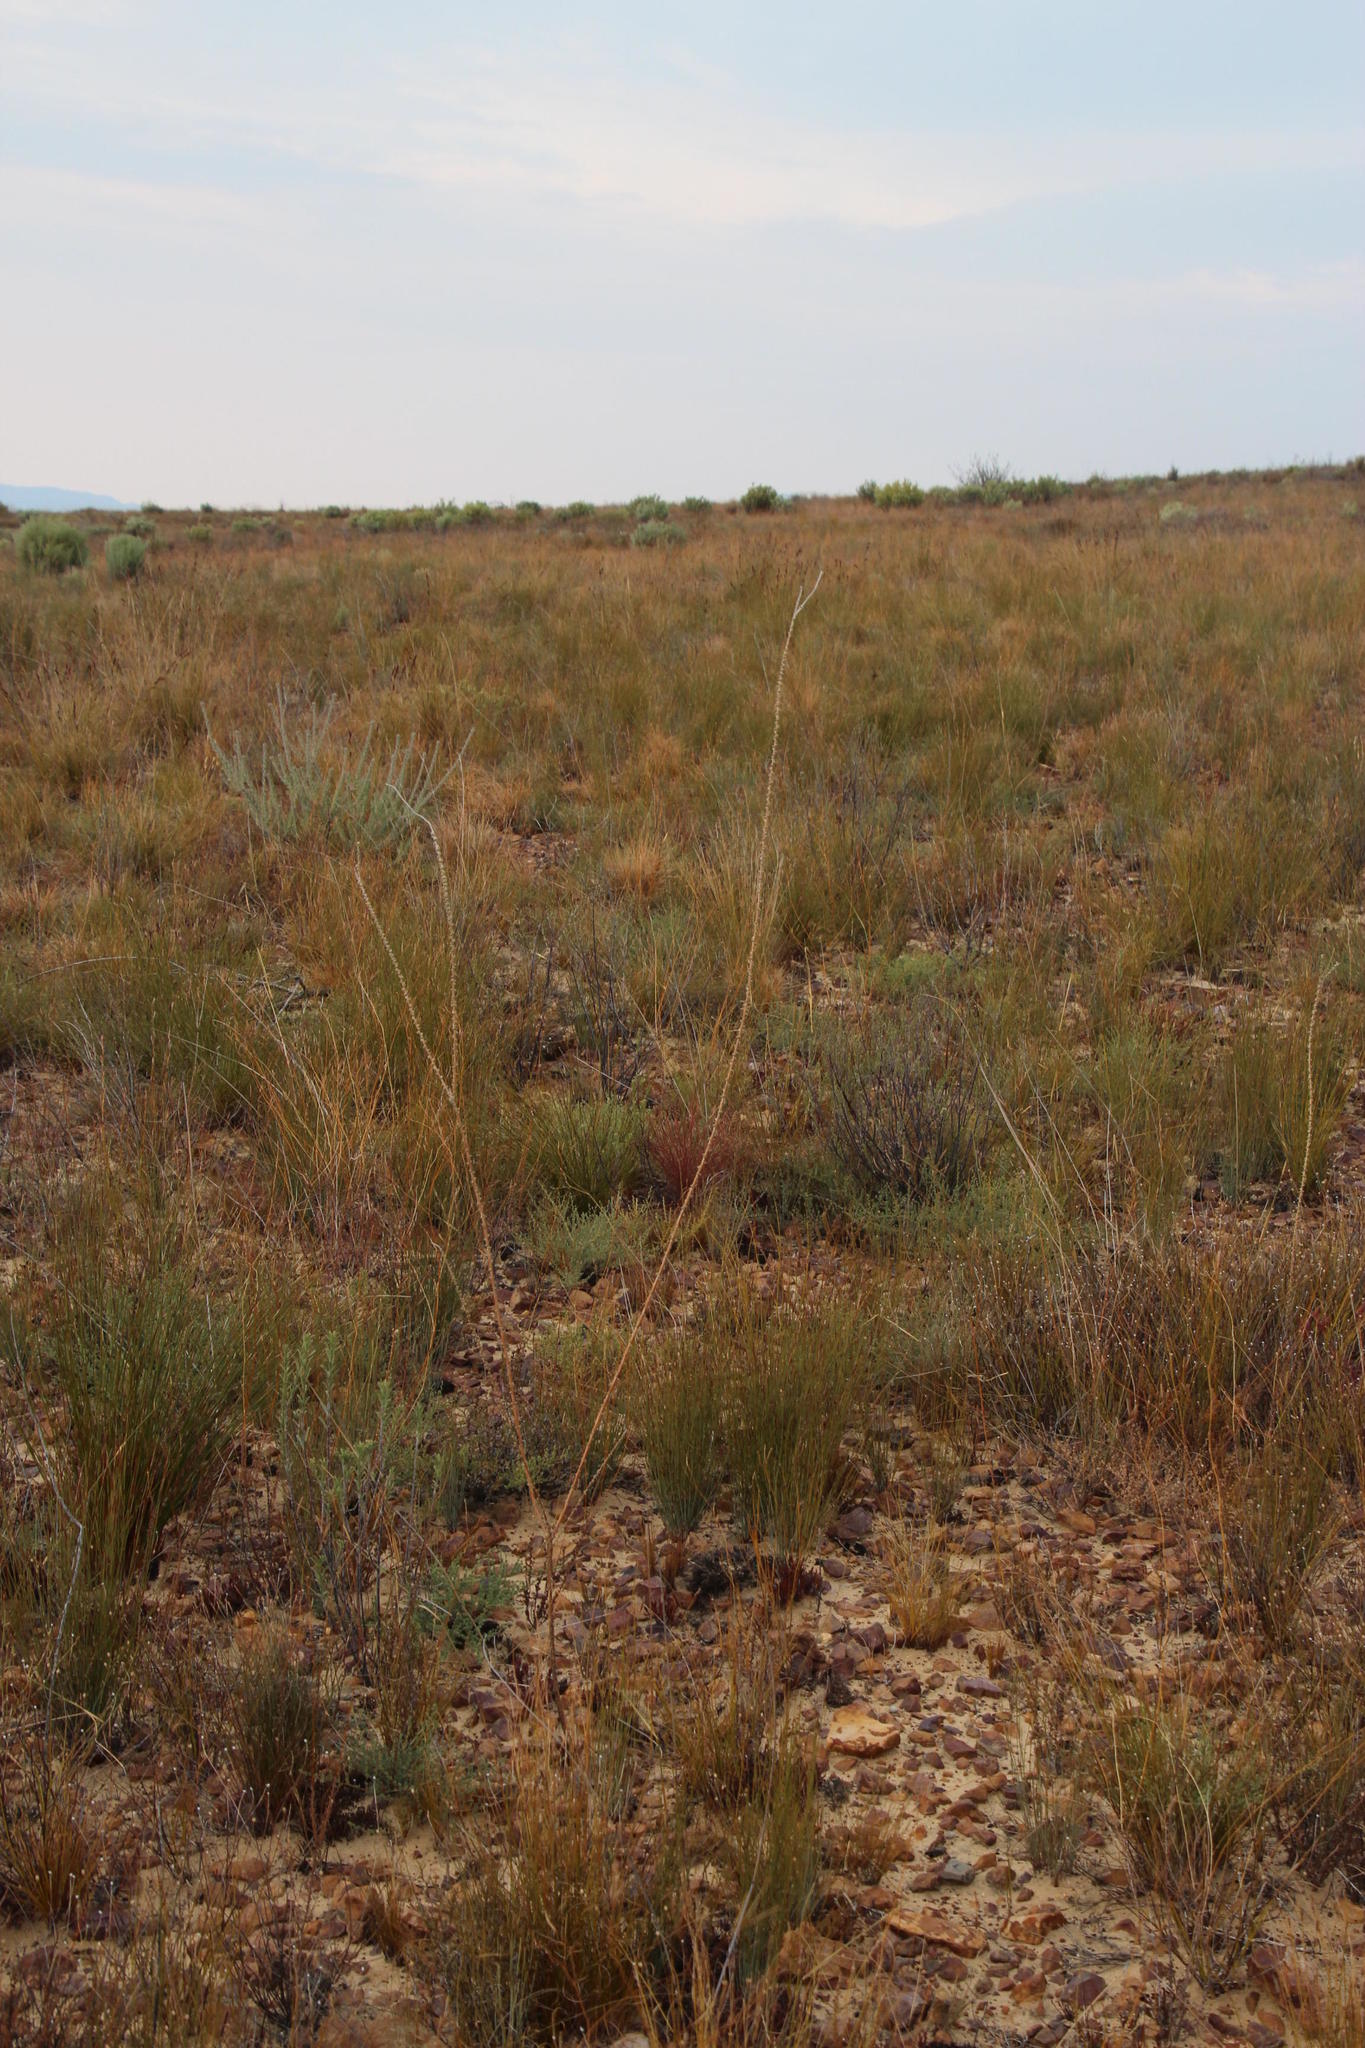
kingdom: Plantae
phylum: Tracheophyta
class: Magnoliopsida
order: Fabales
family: Fabaceae
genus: Aspalathus
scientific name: Aspalathus aemula
